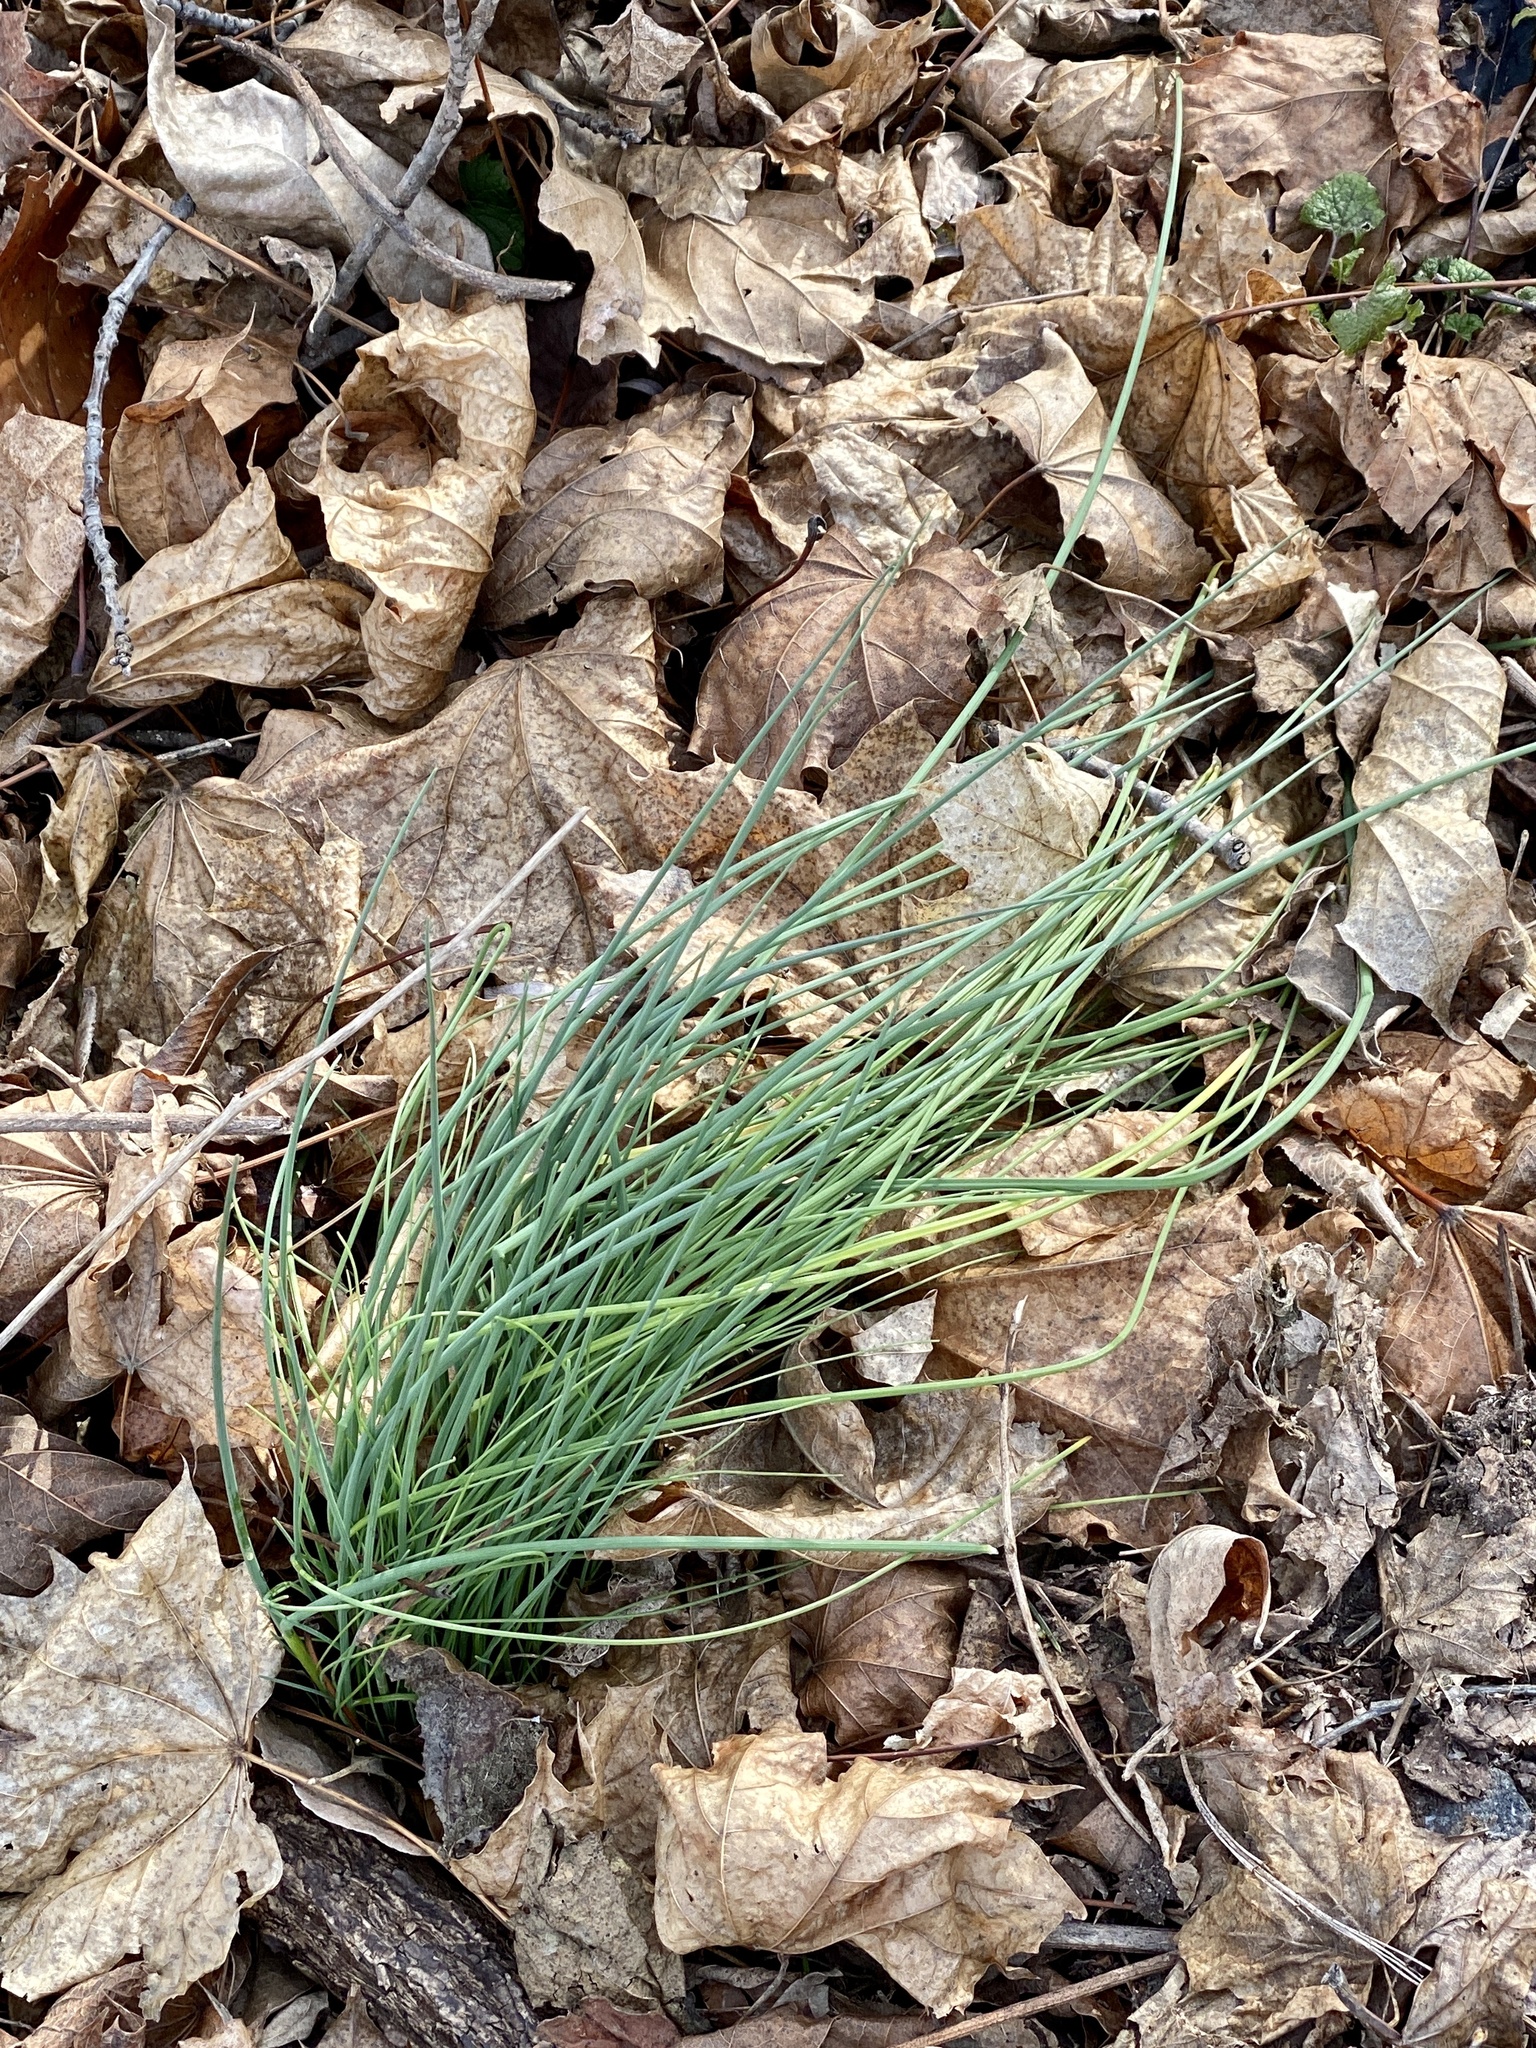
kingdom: Plantae
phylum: Tracheophyta
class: Liliopsida
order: Asparagales
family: Amaryllidaceae
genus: Allium
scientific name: Allium vineale
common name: Crow garlic
